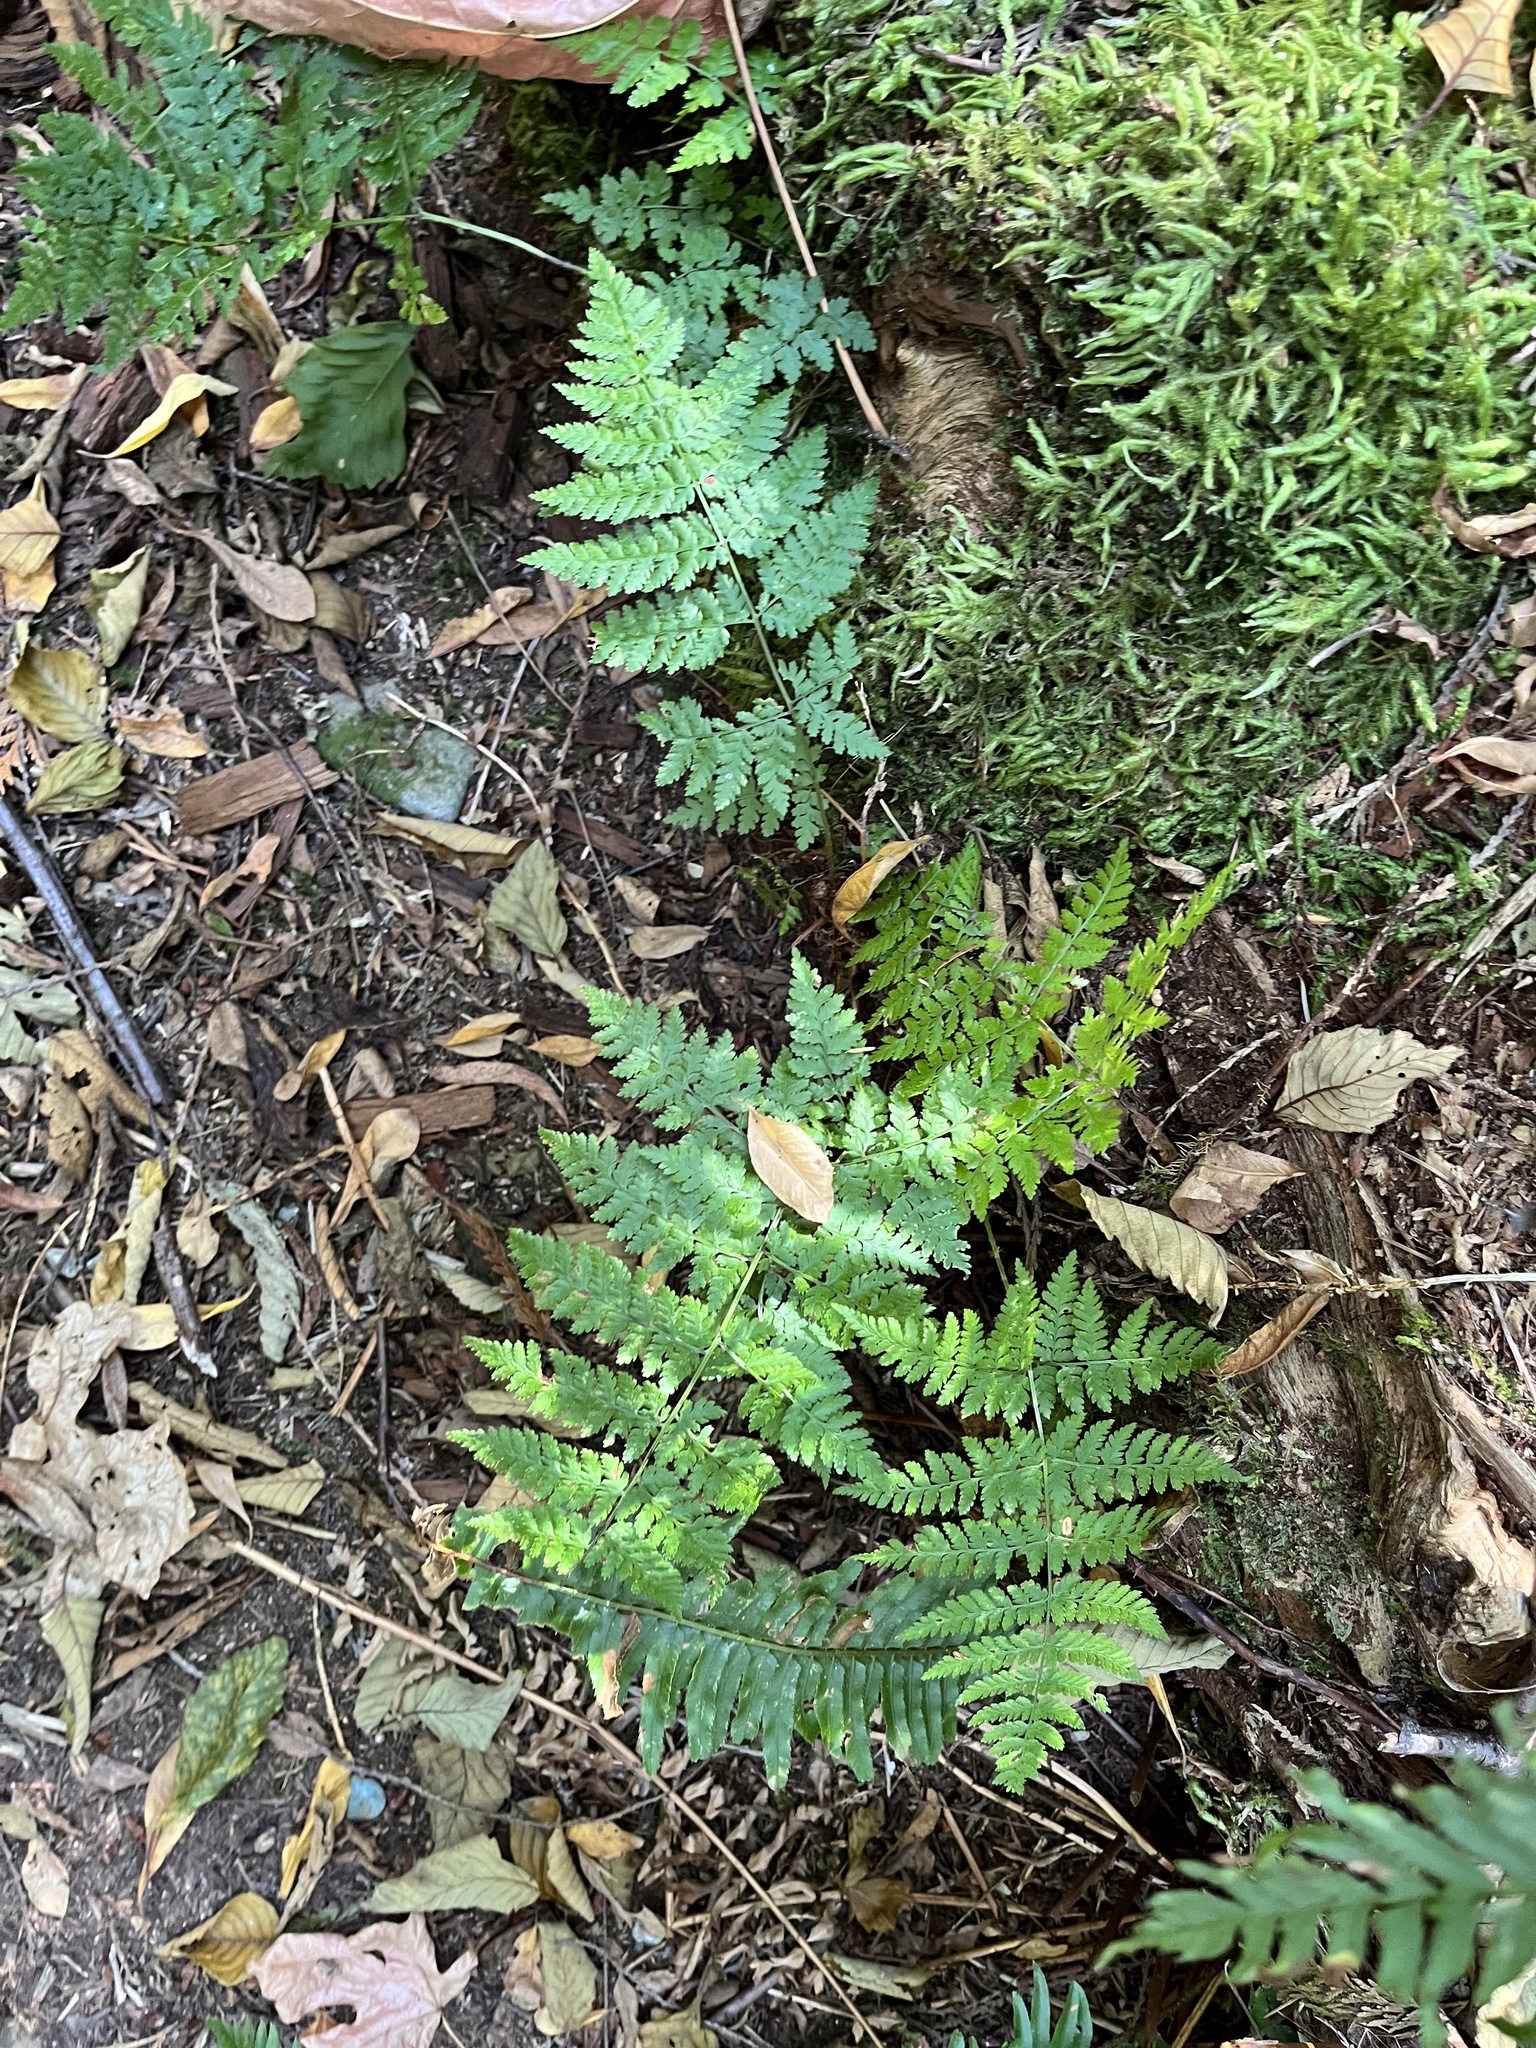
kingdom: Plantae
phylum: Tracheophyta
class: Polypodiopsida
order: Polypodiales
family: Dryopteridaceae
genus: Dryopteris
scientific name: Dryopteris expansa
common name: Northern buckler fern
